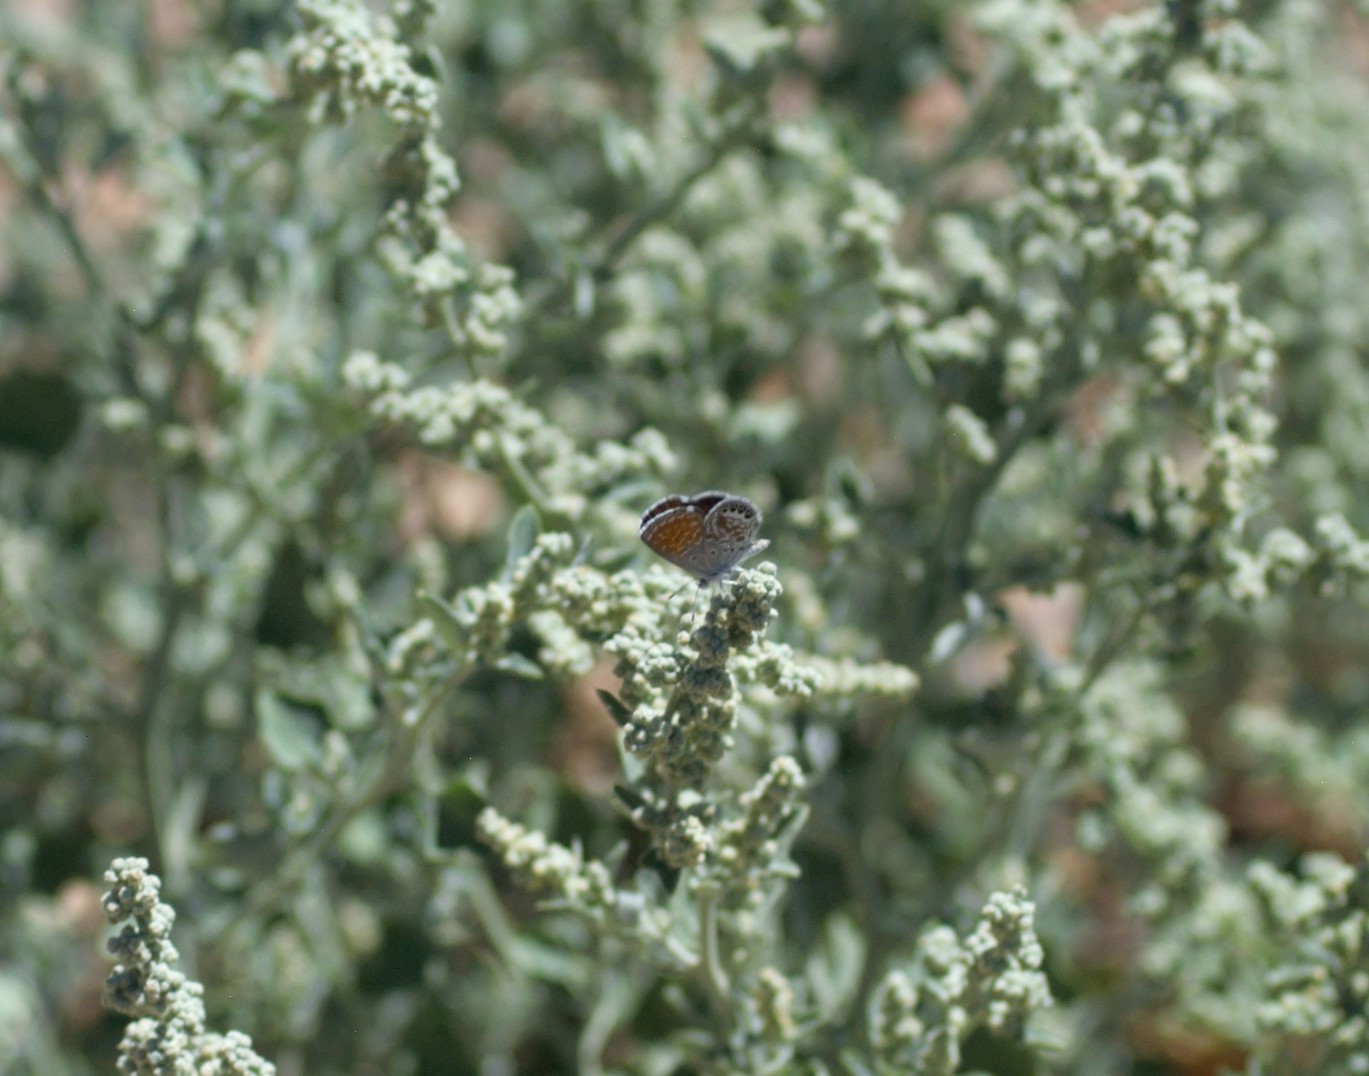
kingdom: Animalia
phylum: Arthropoda
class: Insecta
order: Lepidoptera
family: Lycaenidae
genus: Brephidium
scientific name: Brephidium exilis
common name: Pygmy blue
